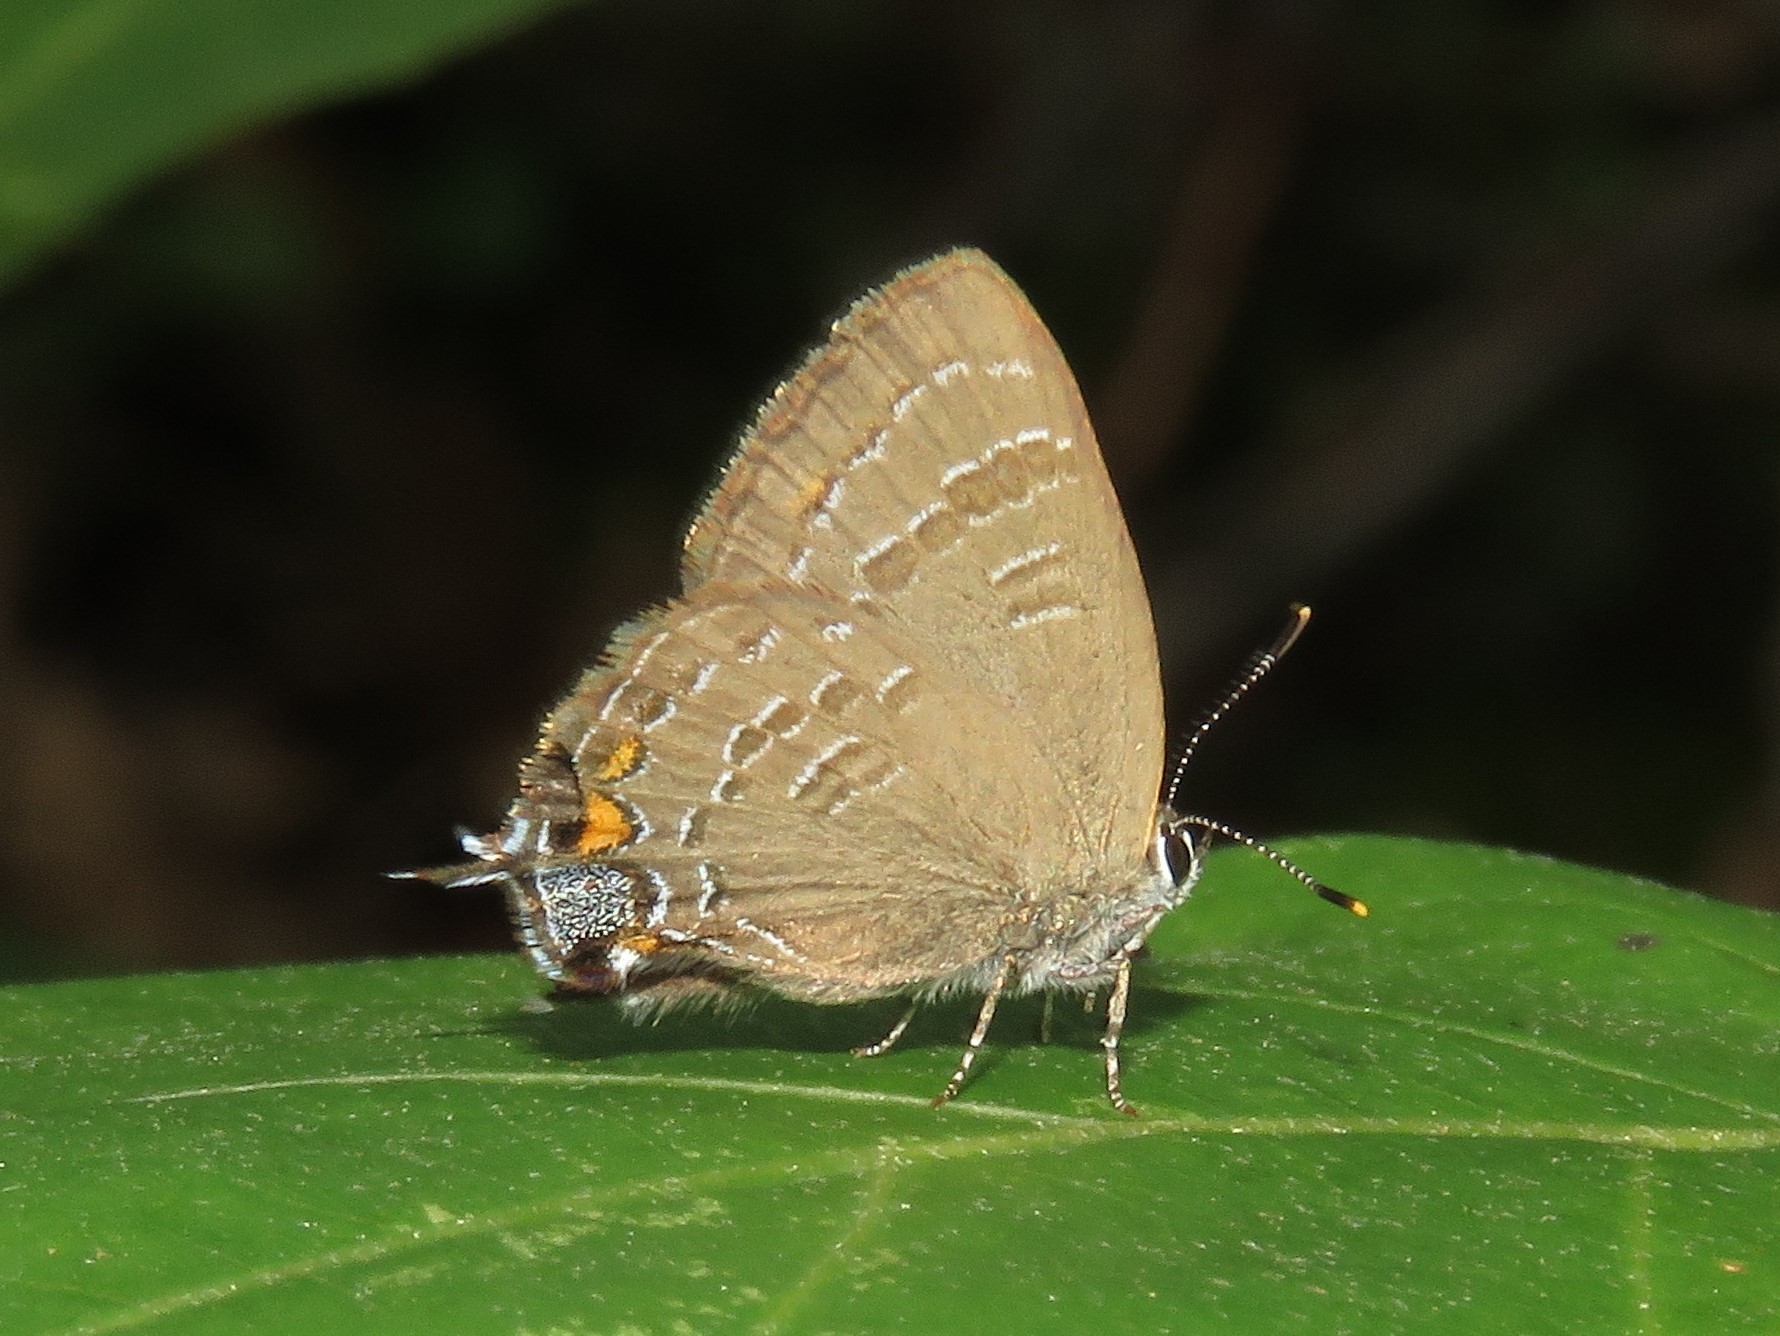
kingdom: Animalia
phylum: Arthropoda
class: Insecta
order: Lepidoptera
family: Lycaenidae
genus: Satyrium
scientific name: Satyrium calanus
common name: Banded hairstreak
